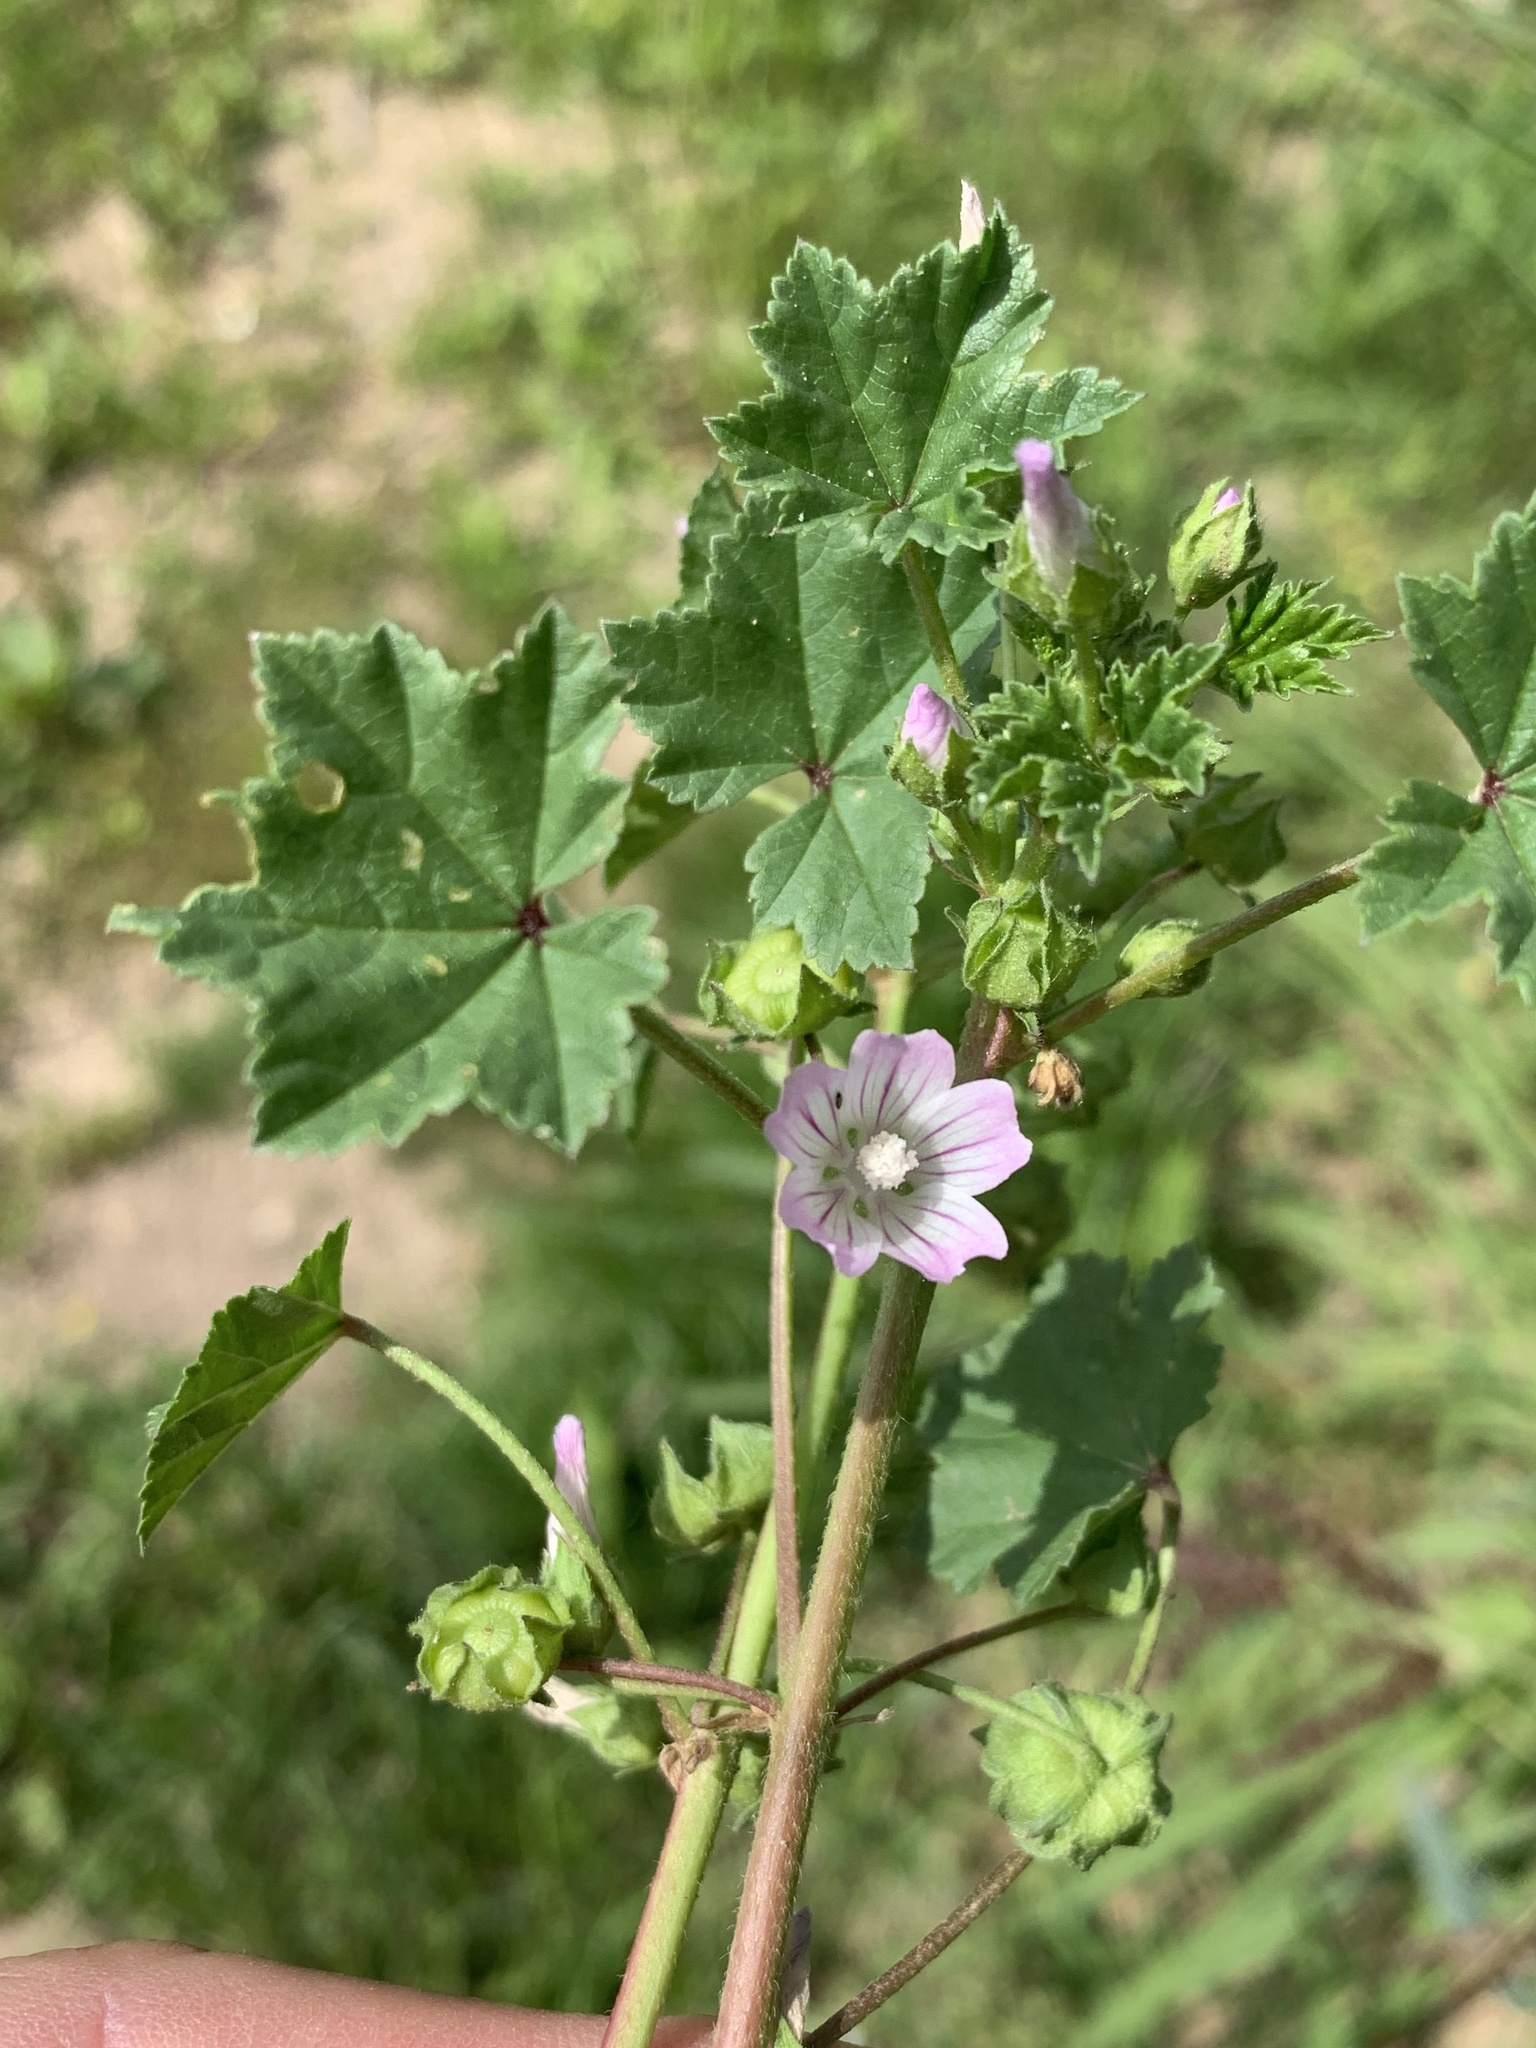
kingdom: Plantae
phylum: Tracheophyta
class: Magnoliopsida
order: Malvales
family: Malvaceae
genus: Malva
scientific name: Malva neglecta
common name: Common mallow
